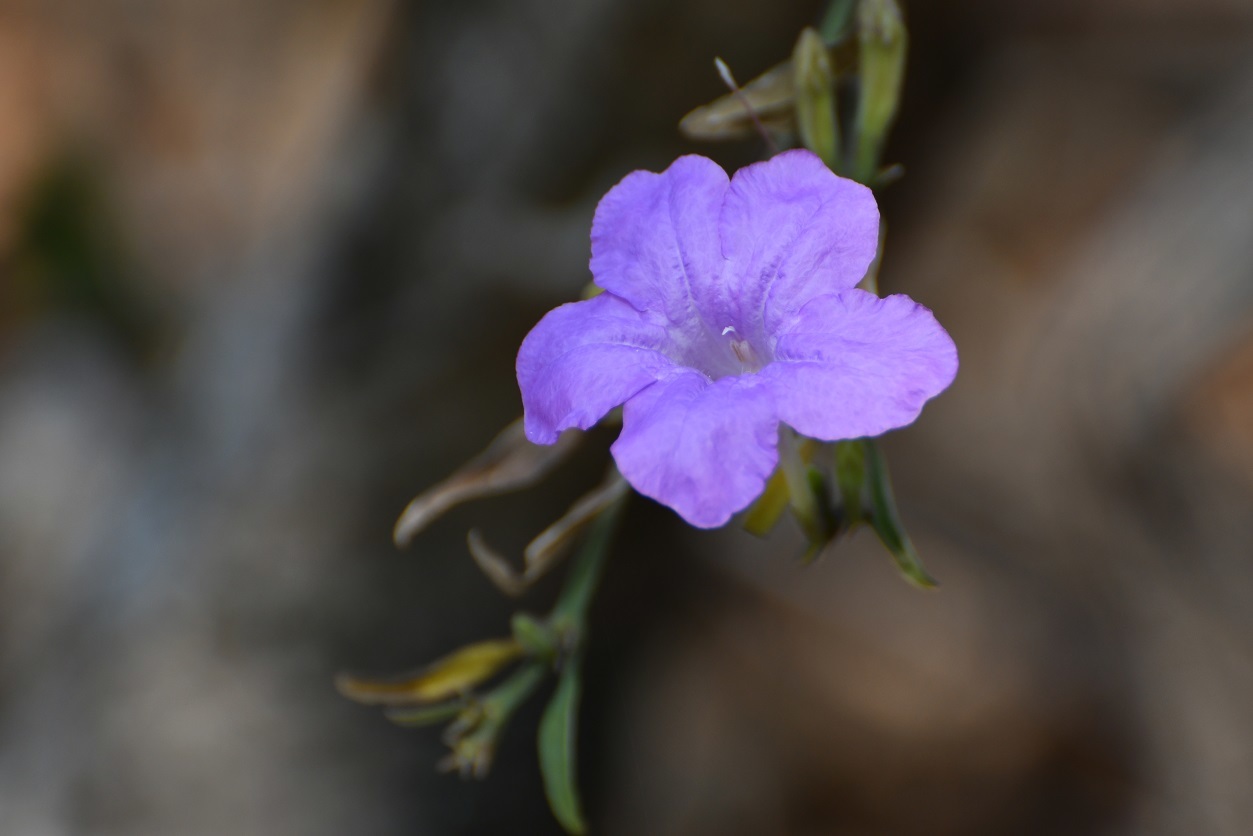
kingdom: Plantae
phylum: Tracheophyta
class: Magnoliopsida
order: Lamiales
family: Acanthaceae
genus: Ruellia
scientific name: Ruellia breedlovei
